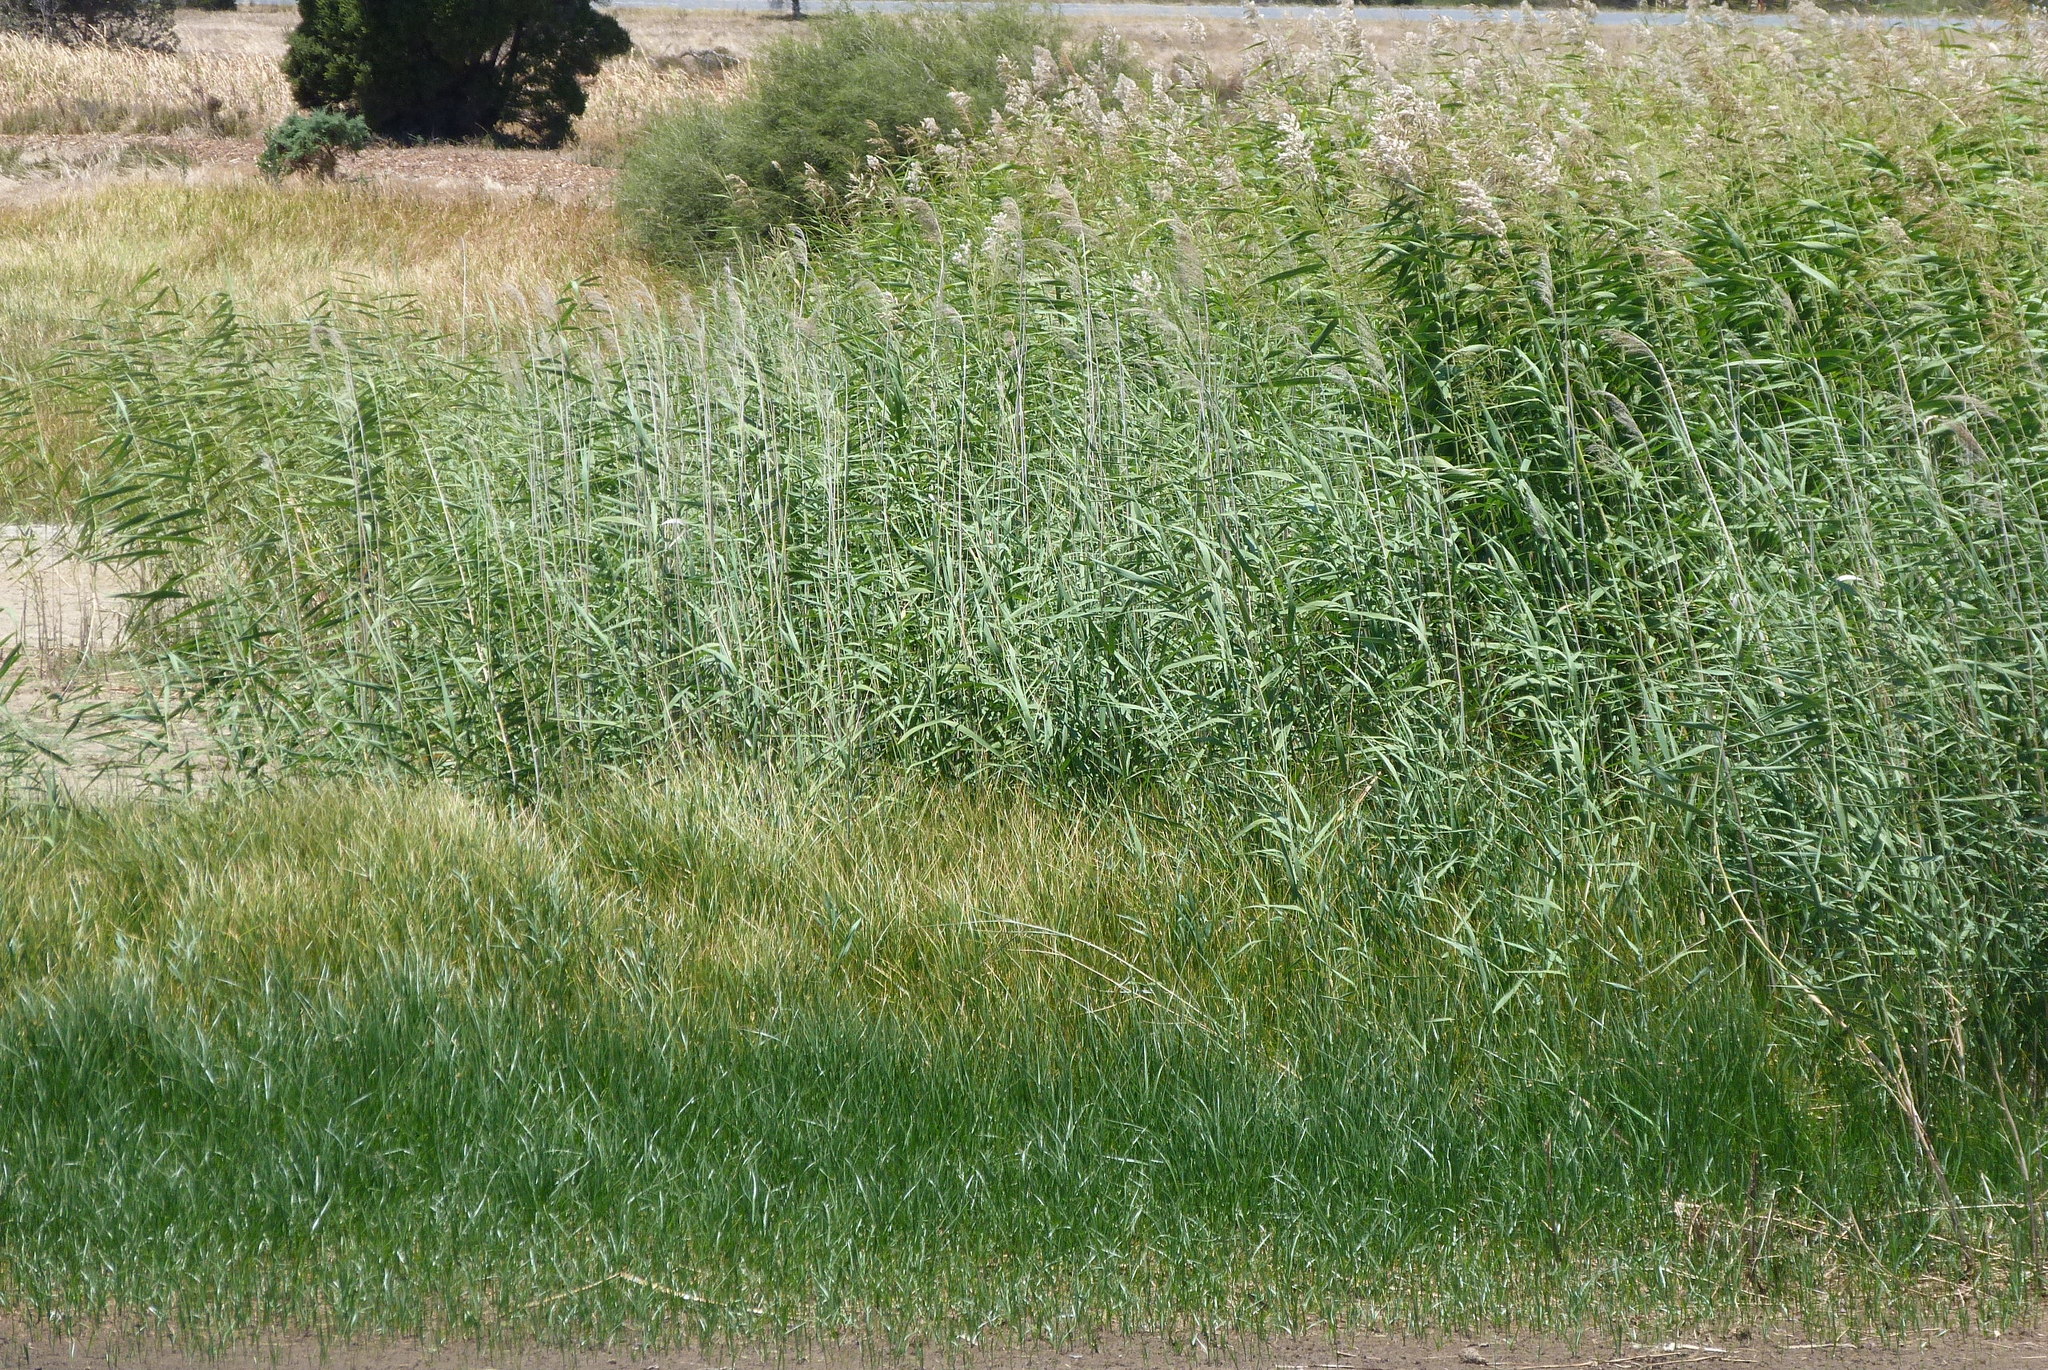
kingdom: Plantae
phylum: Tracheophyta
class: Liliopsida
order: Poales
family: Poaceae
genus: Phragmites
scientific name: Phragmites australis
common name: Common reed
